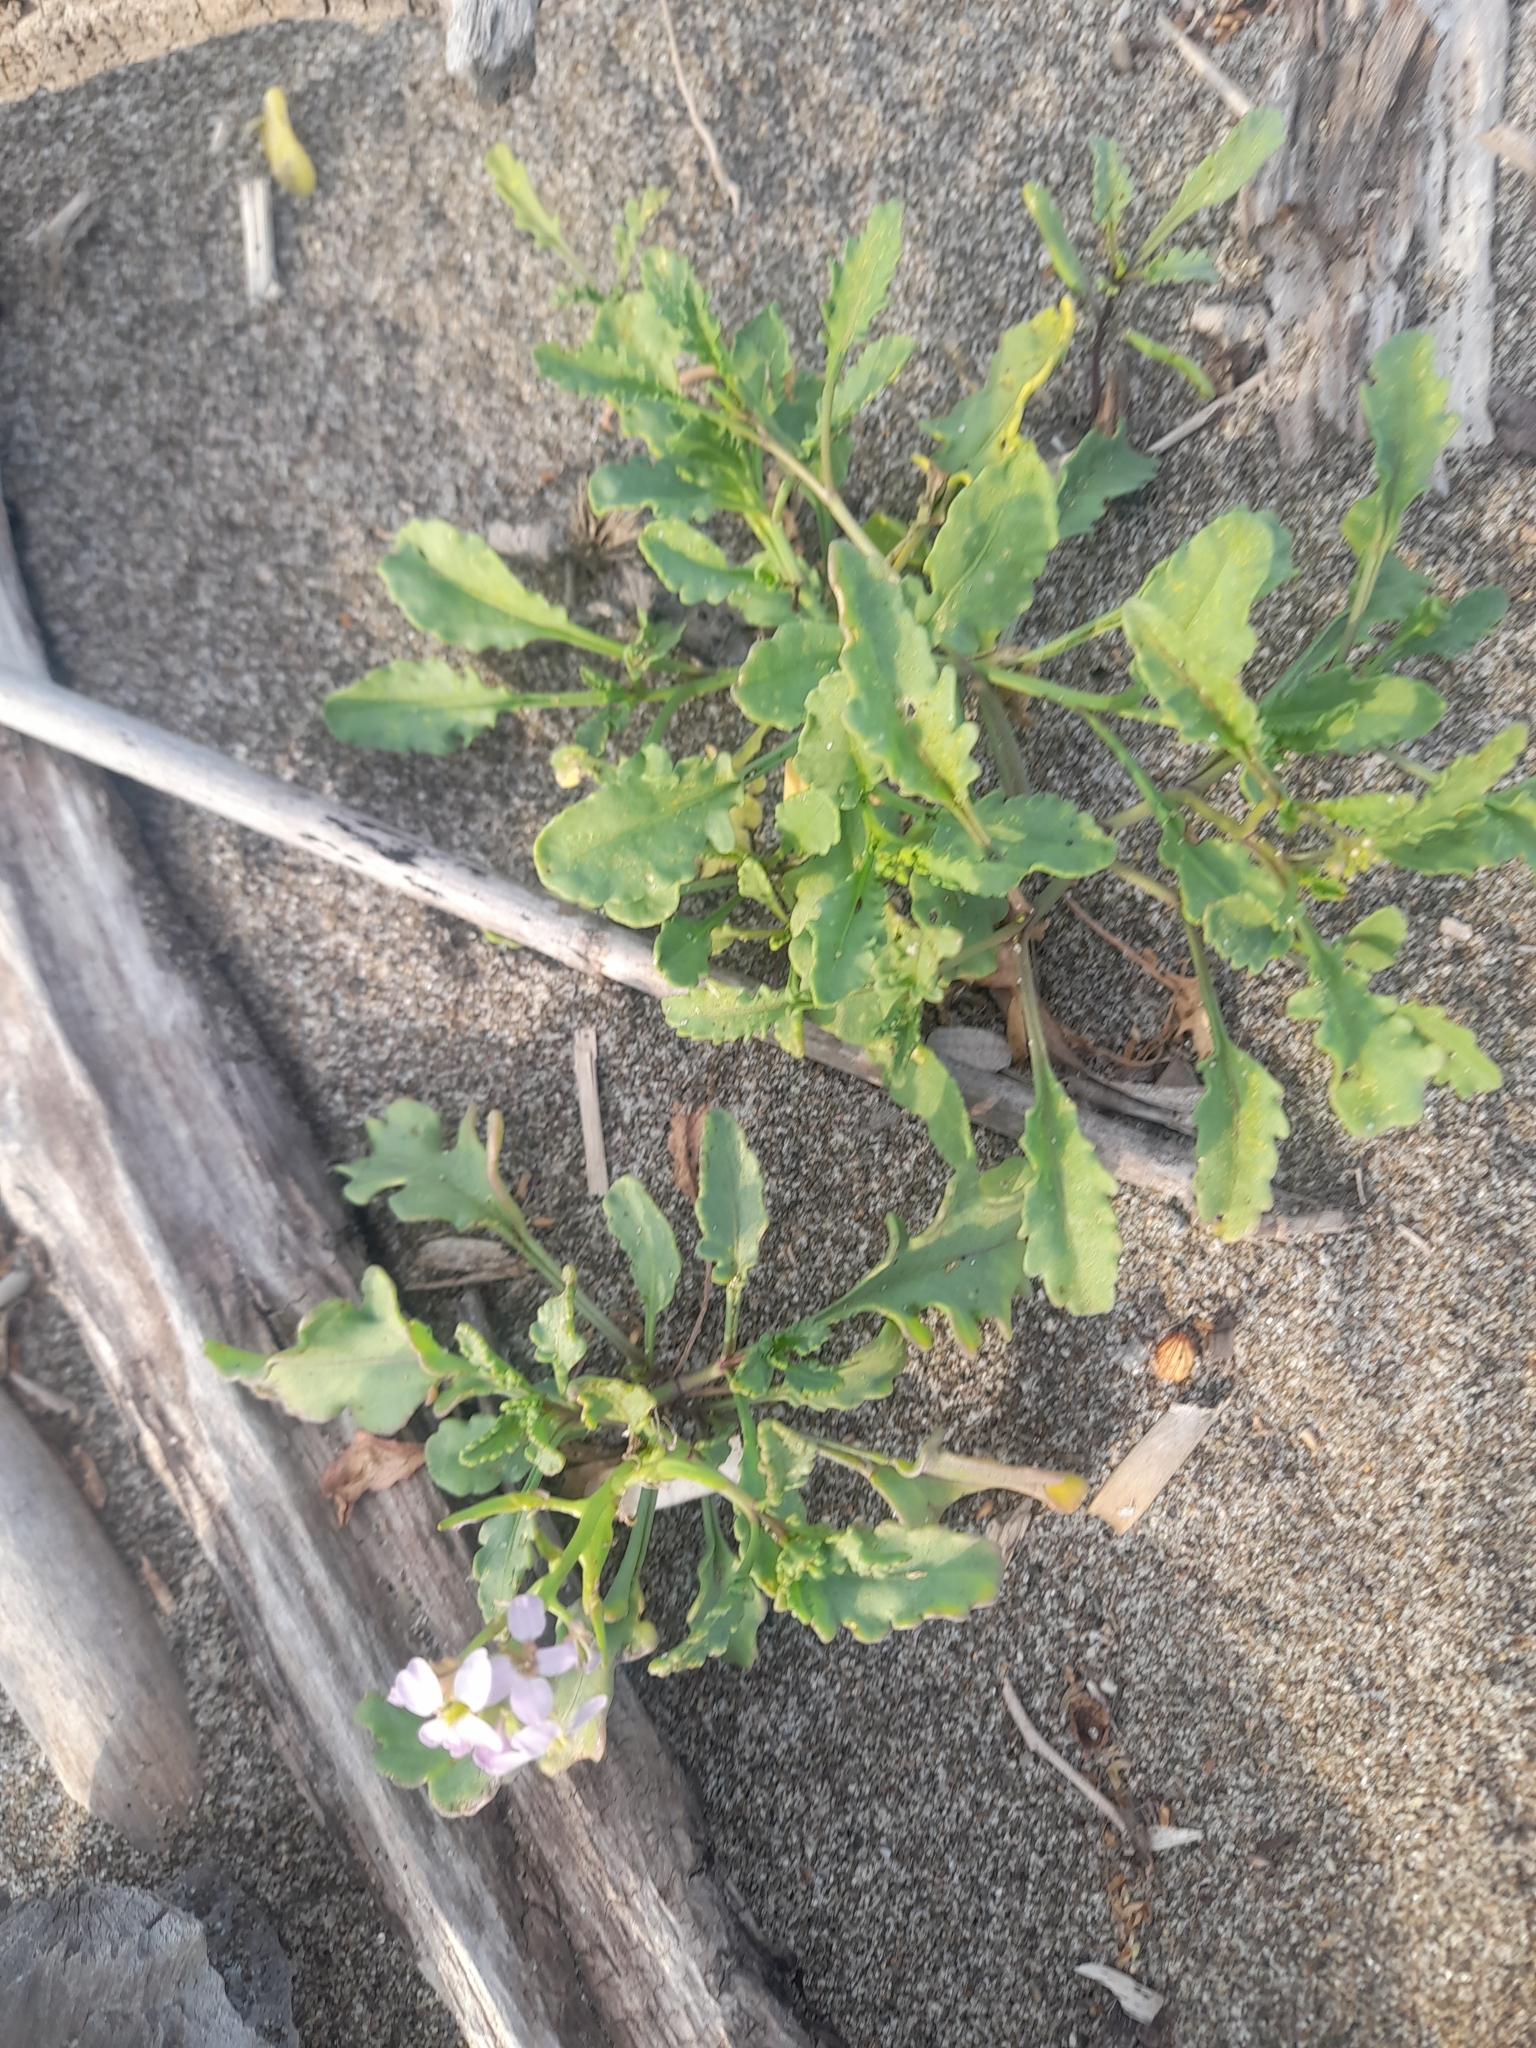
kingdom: Plantae
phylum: Tracheophyta
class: Magnoliopsida
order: Brassicales
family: Brassicaceae
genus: Cakile
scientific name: Cakile maritima
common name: Sea rocket
